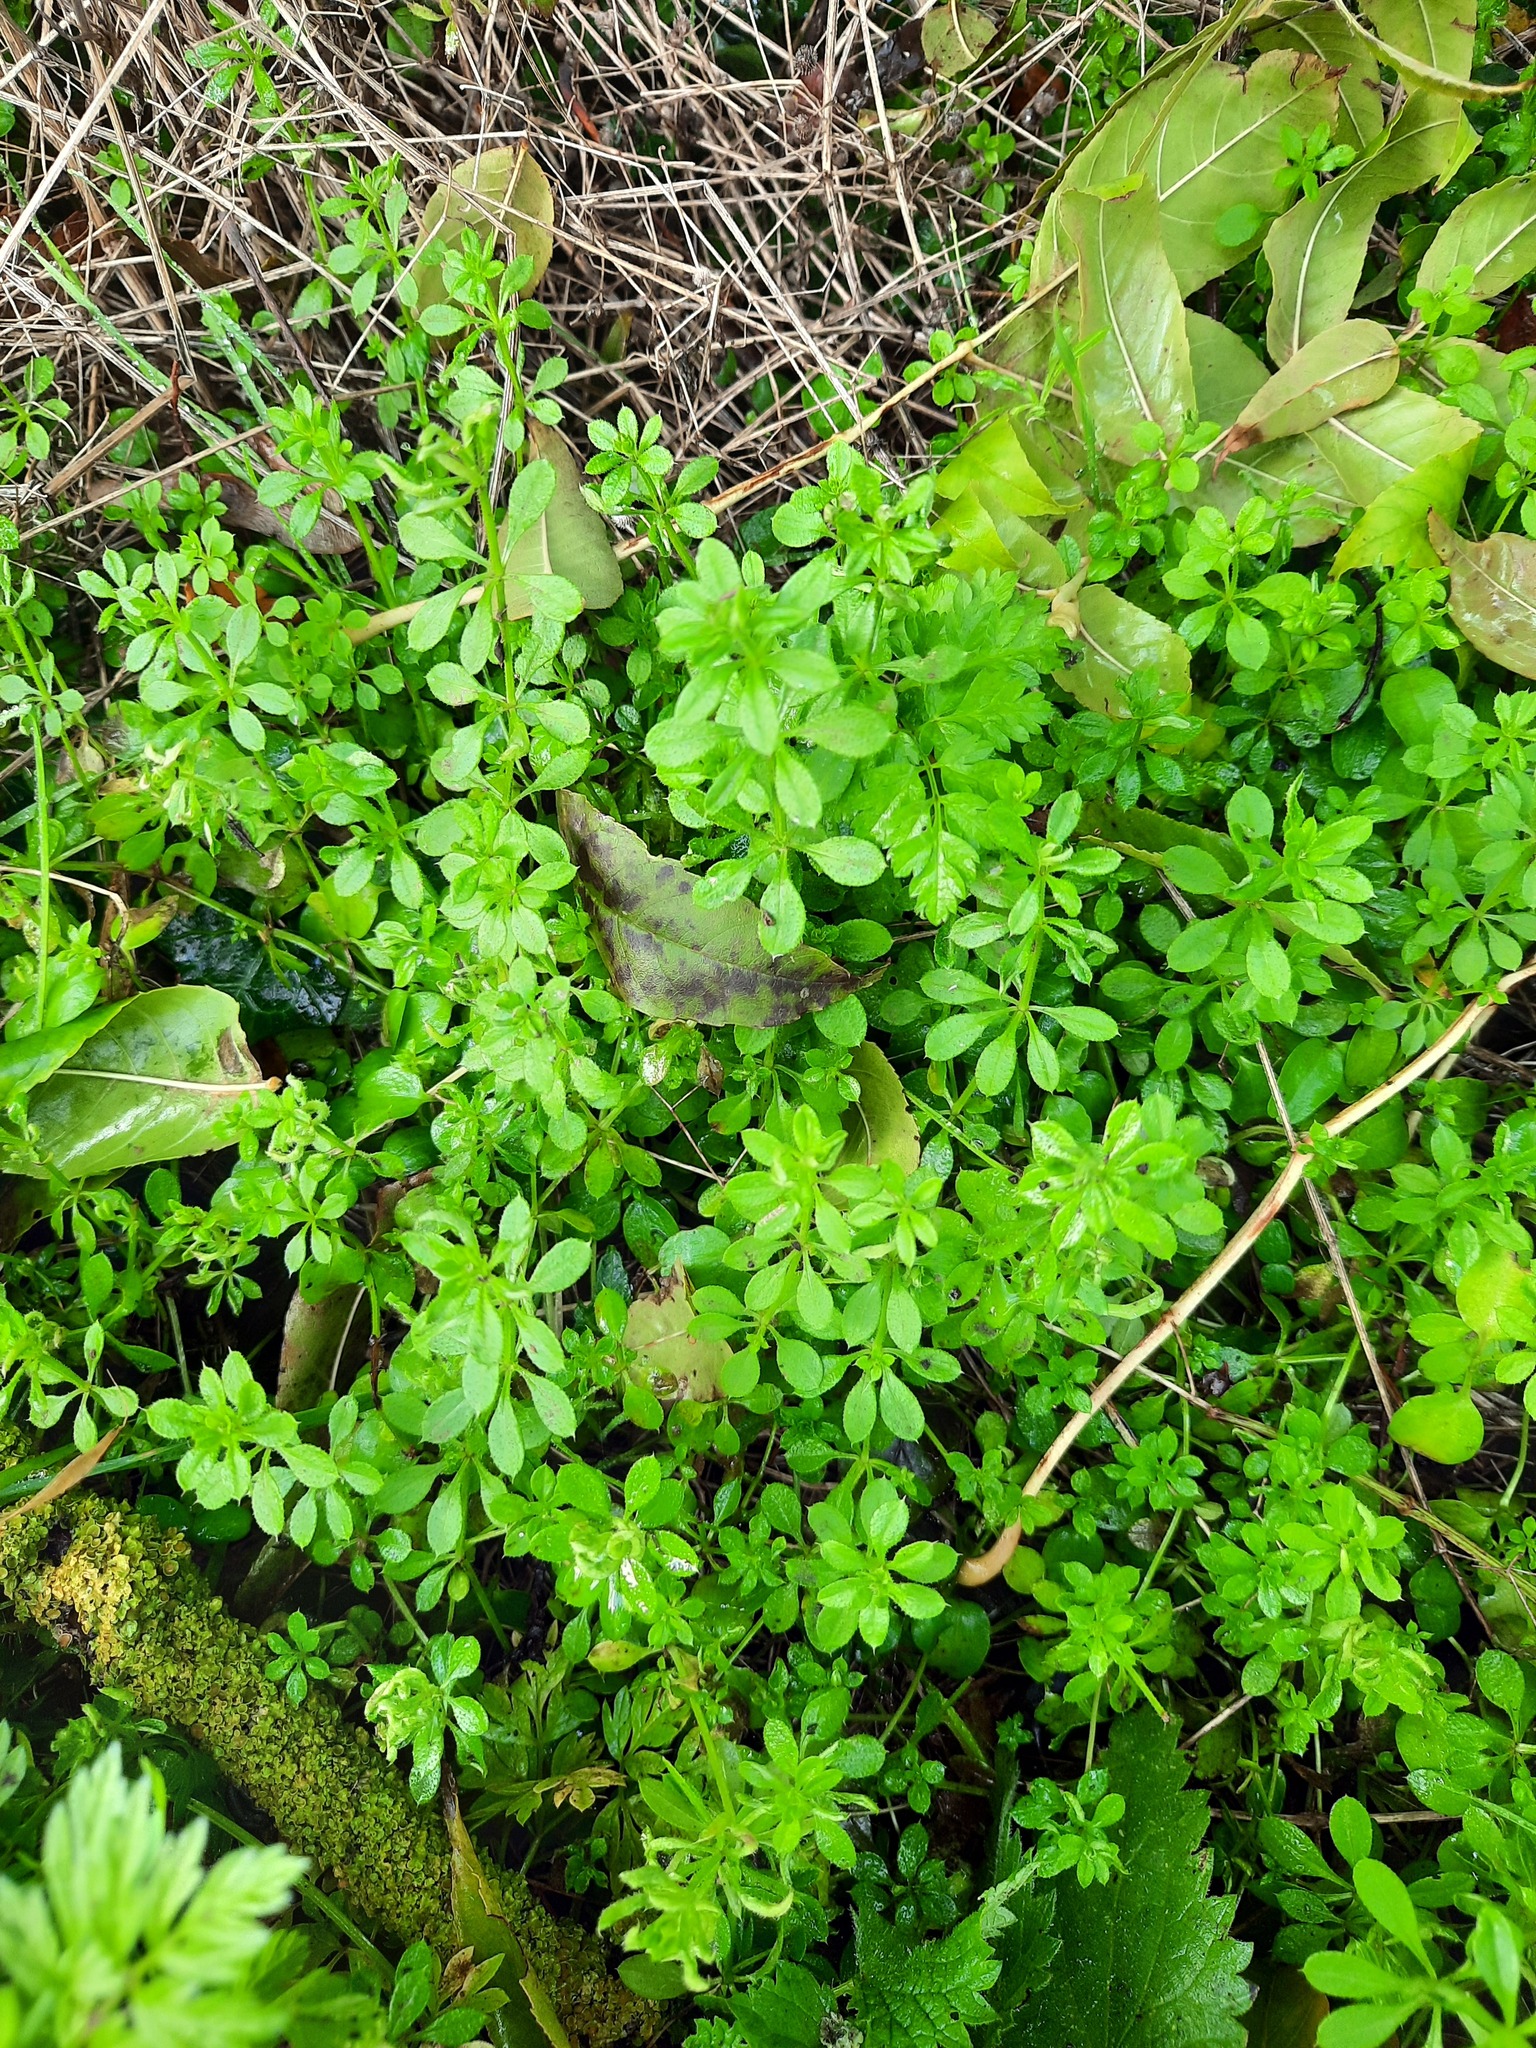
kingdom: Plantae
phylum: Tracheophyta
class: Magnoliopsida
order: Gentianales
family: Rubiaceae
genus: Galium
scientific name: Galium aparine
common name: Cleavers
